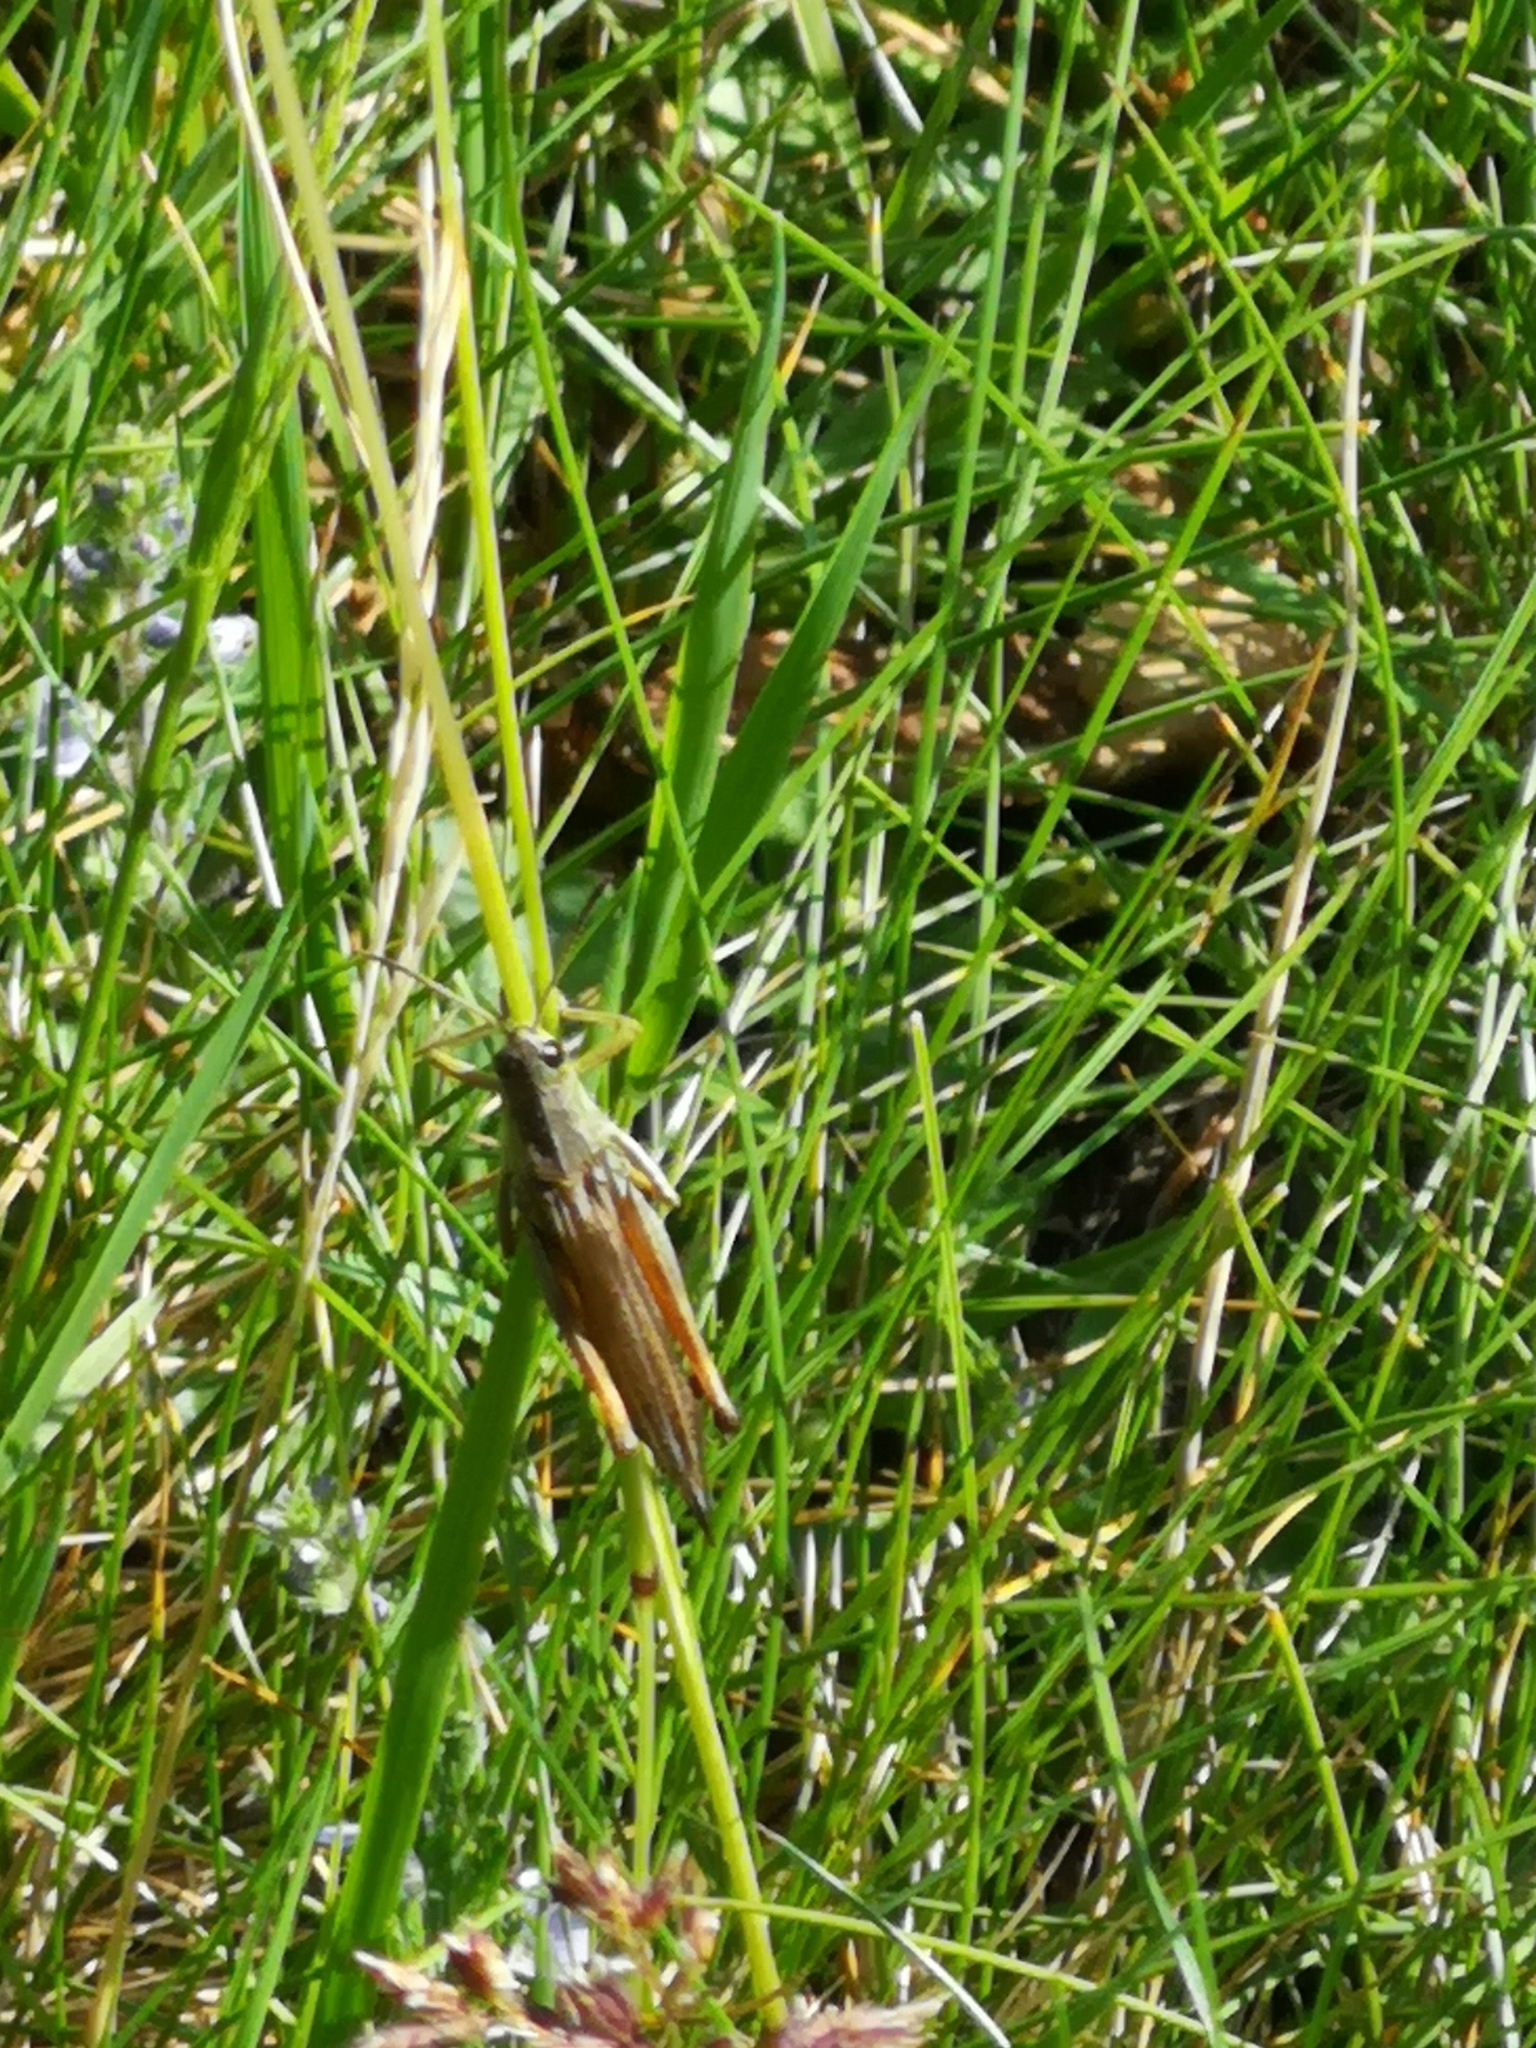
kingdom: Animalia
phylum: Arthropoda
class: Insecta
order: Orthoptera
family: Acrididae
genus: Stauroderus
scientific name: Stauroderus scalaris
